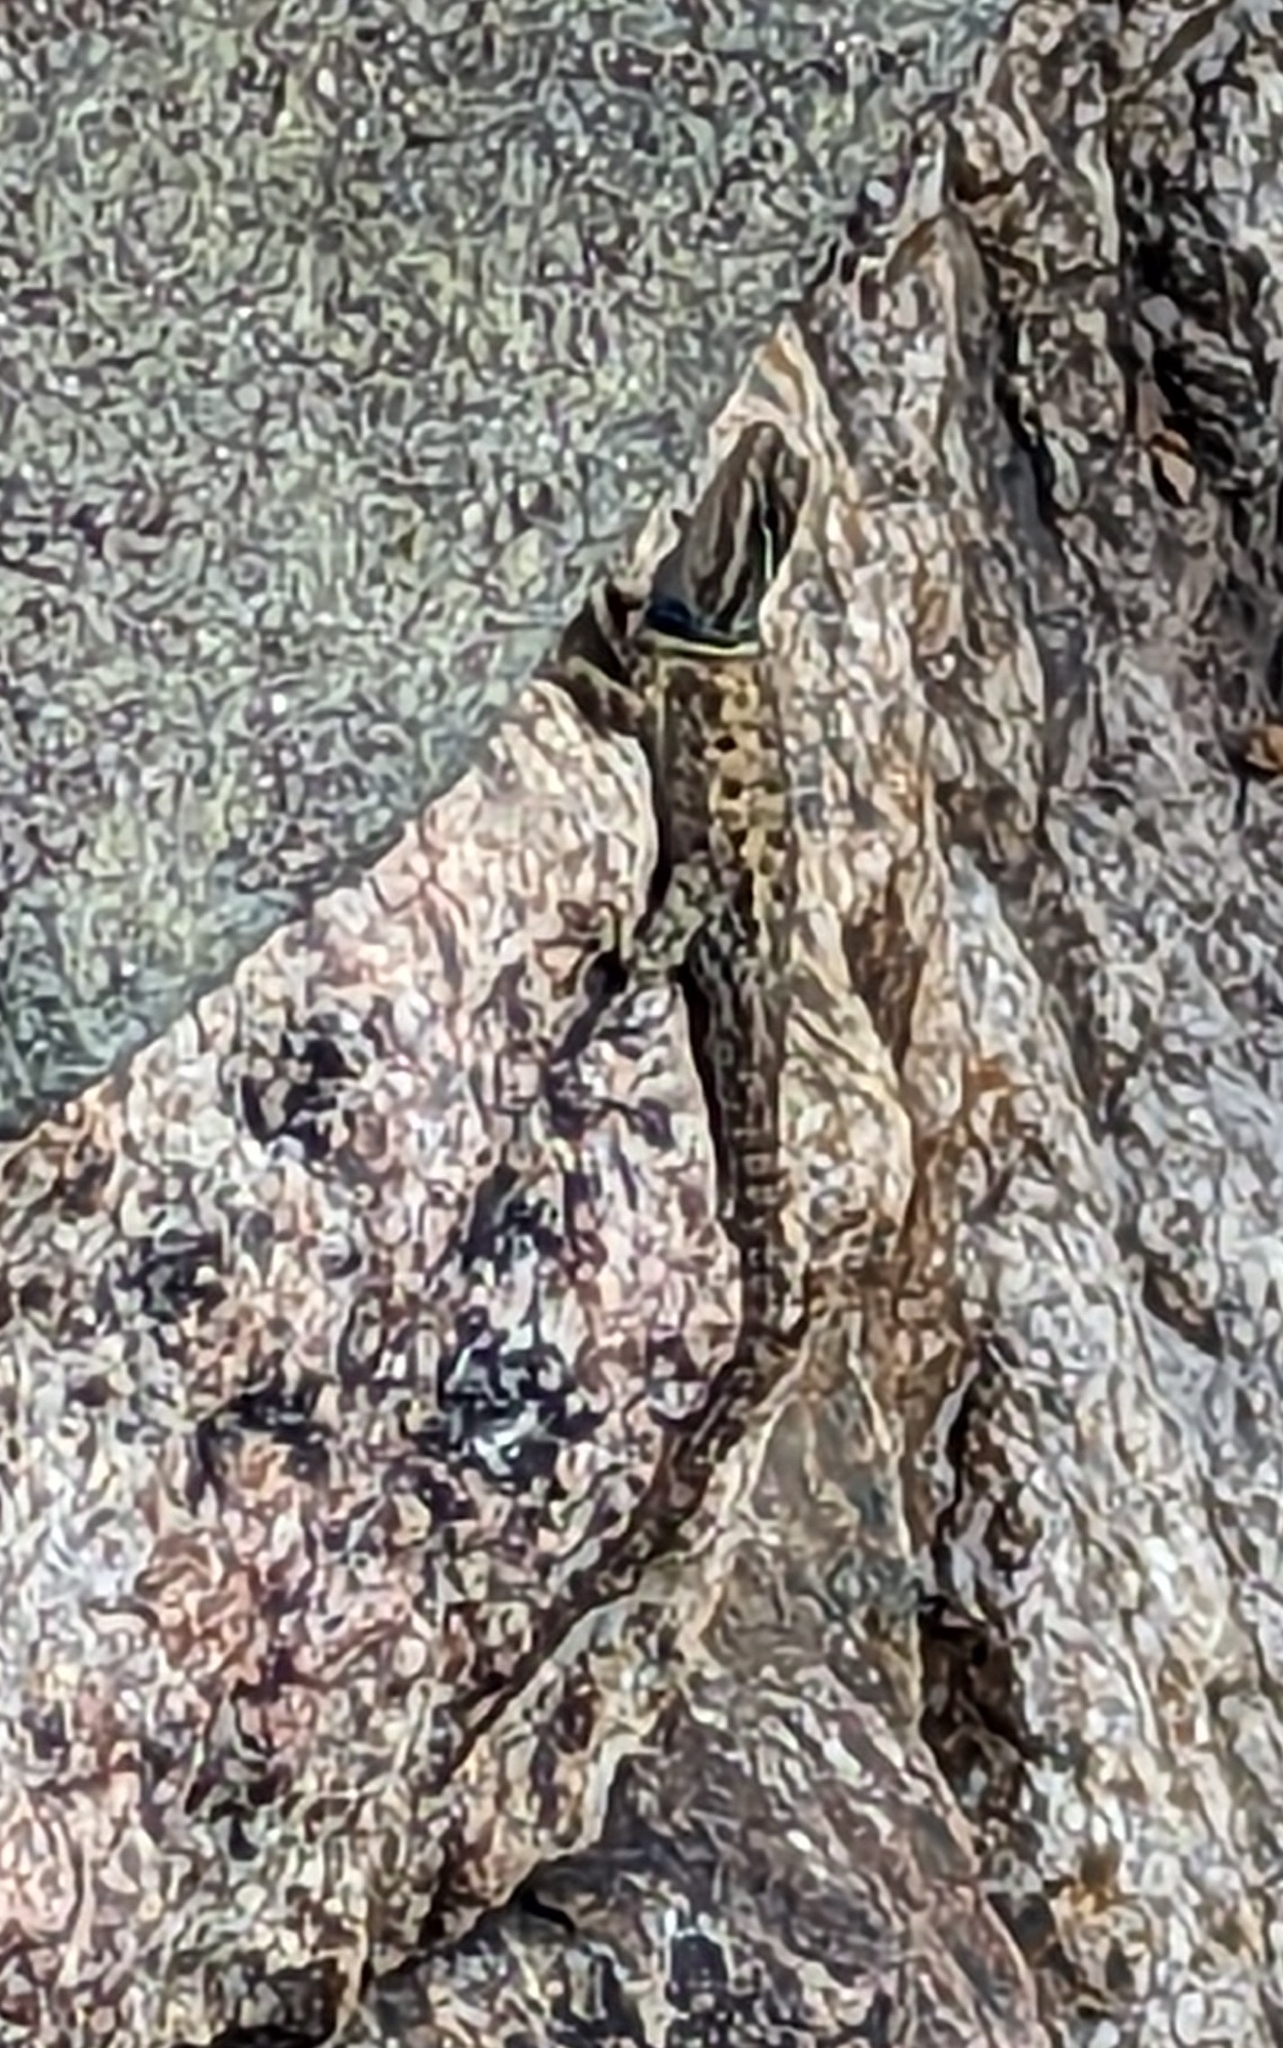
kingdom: Animalia
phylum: Chordata
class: Squamata
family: Phrynosomatidae
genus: Sceloporus
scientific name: Sceloporus jarrovii
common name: Yarrow's spiny lizard
